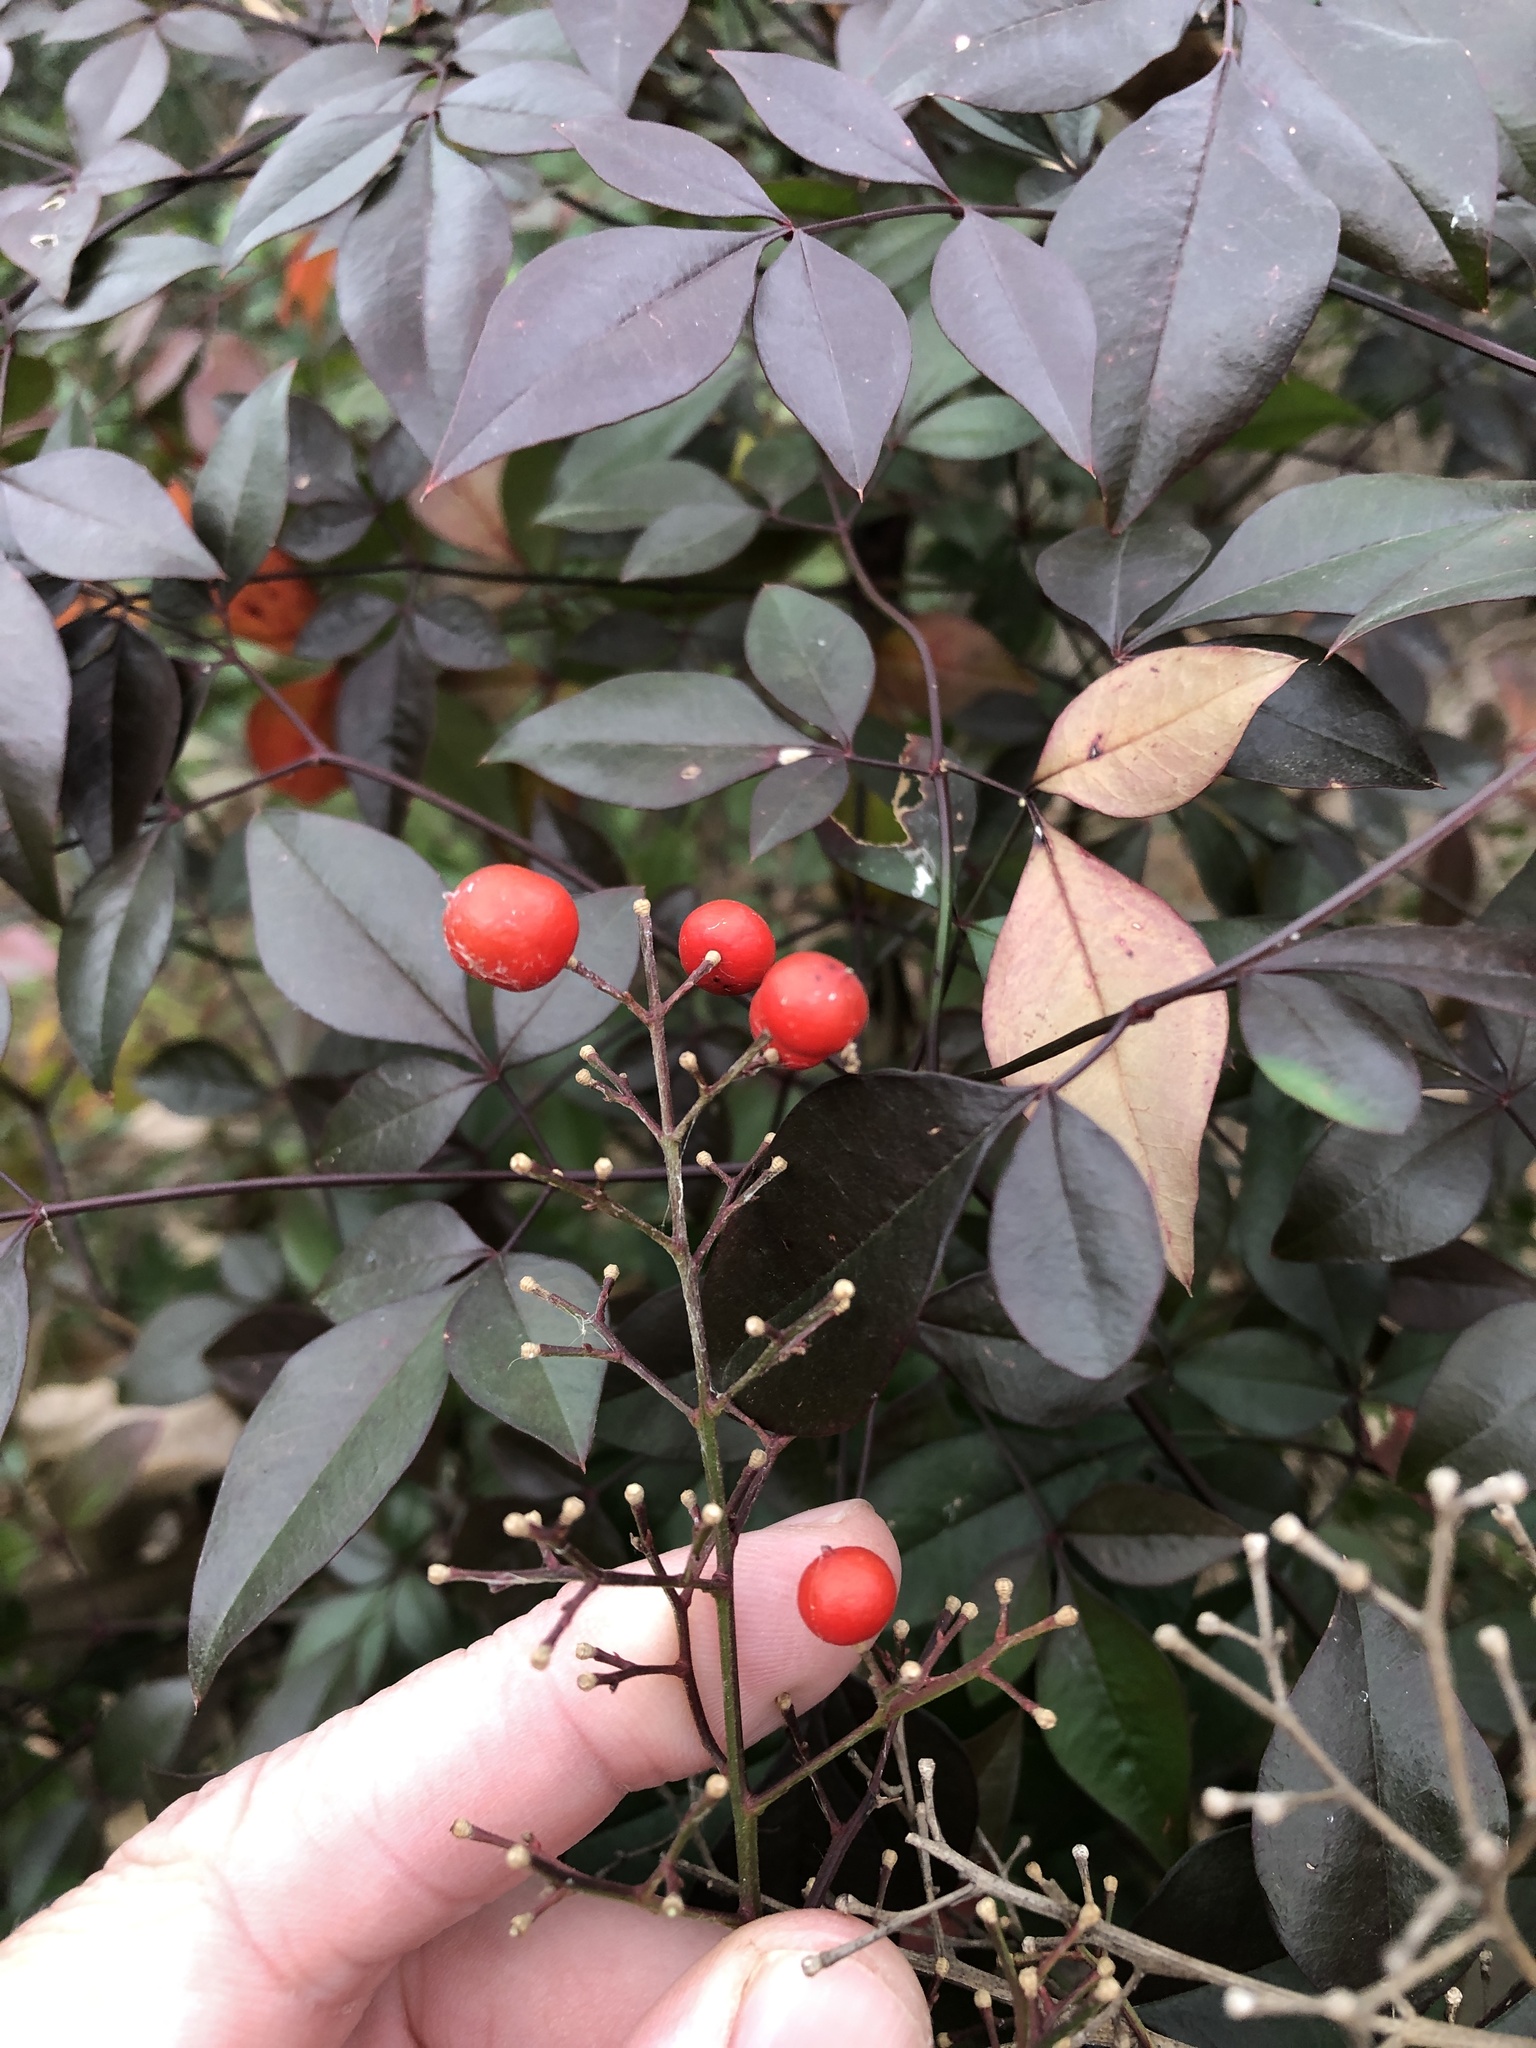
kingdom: Plantae
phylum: Tracheophyta
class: Magnoliopsida
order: Ranunculales
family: Berberidaceae
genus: Nandina
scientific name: Nandina domestica
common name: Sacred bamboo
